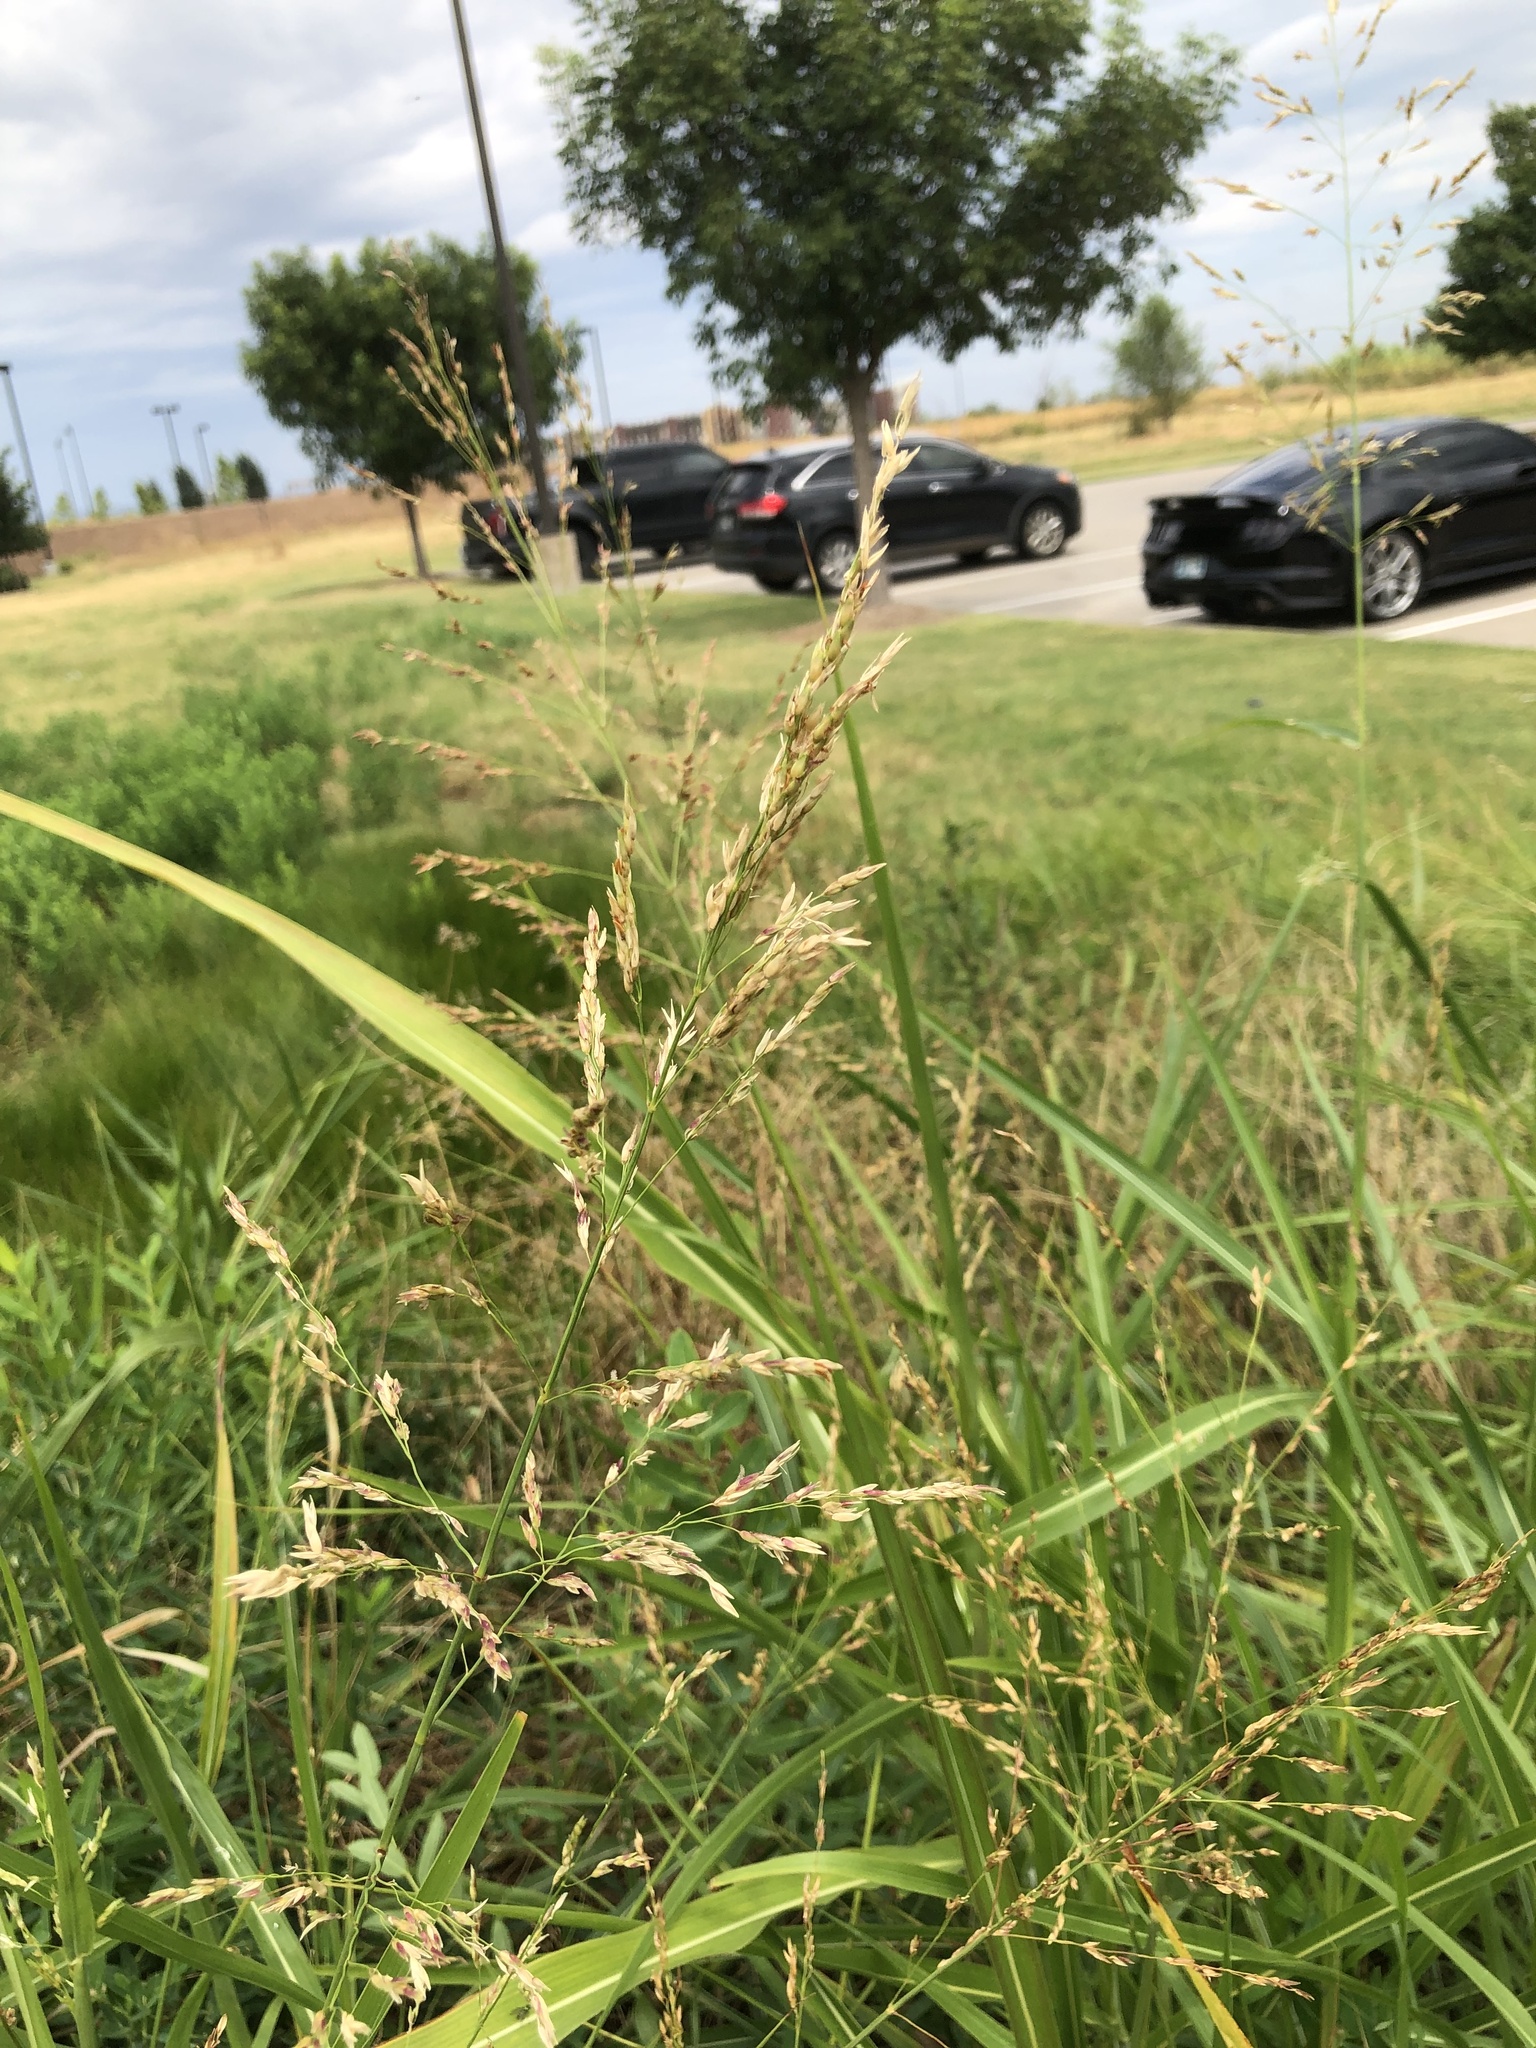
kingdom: Plantae
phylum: Tracheophyta
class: Liliopsida
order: Poales
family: Poaceae
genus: Sorghum
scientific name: Sorghum halepense
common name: Johnson-grass
